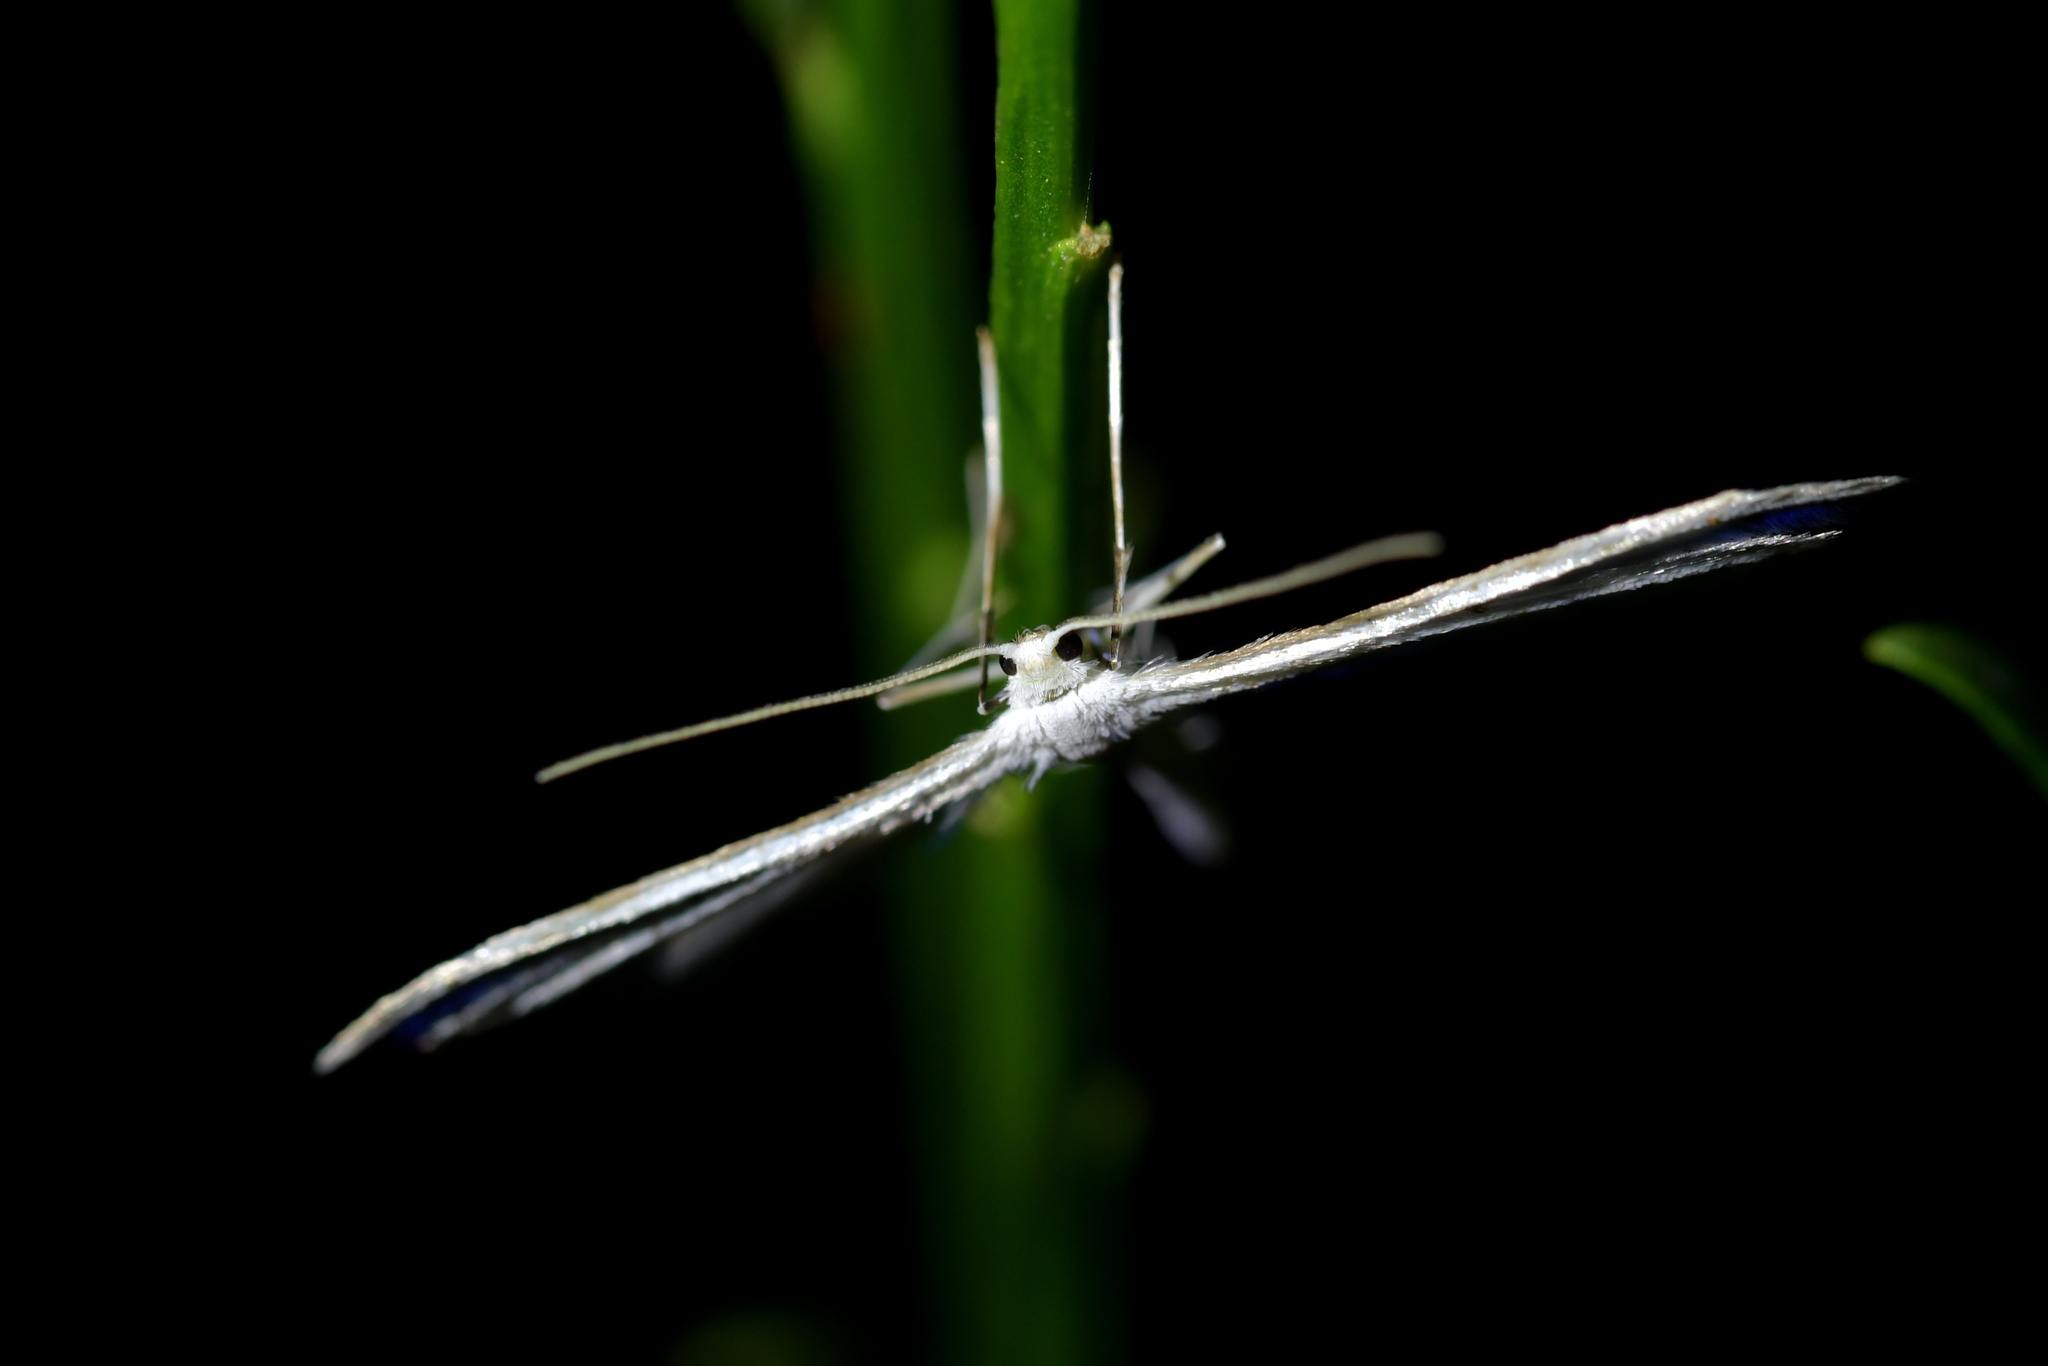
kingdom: Animalia
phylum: Arthropoda
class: Insecta
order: Lepidoptera
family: Pterophoridae
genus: Pterophorus
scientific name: Pterophorus monospilalis
